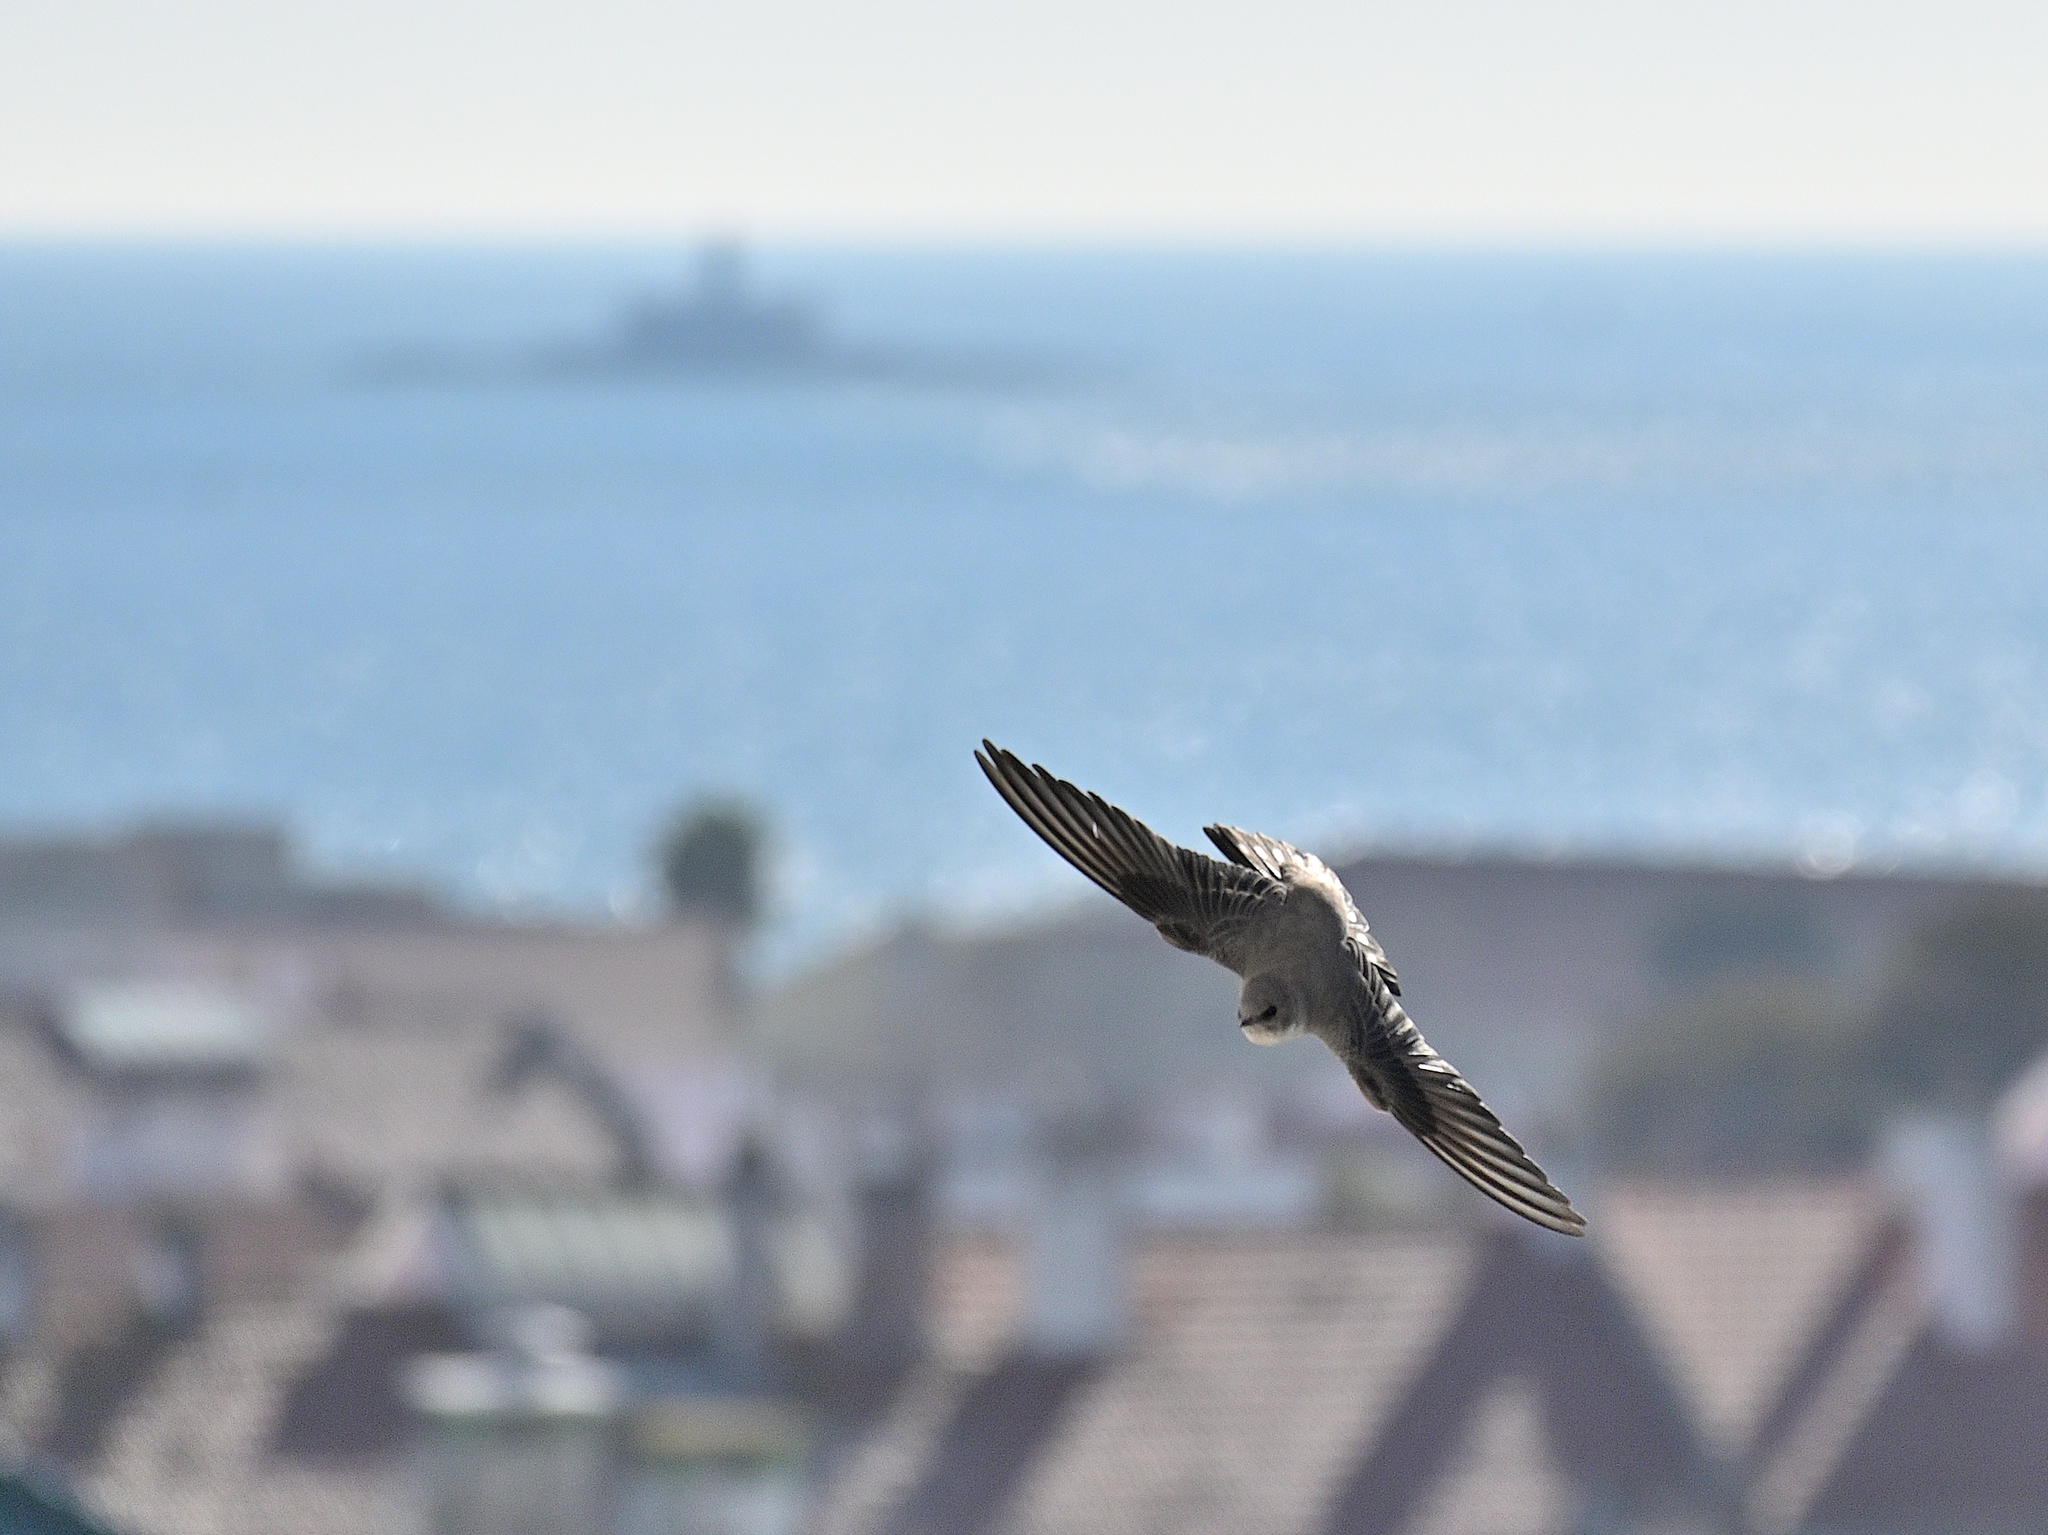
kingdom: Animalia
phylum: Chordata
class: Aves
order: Passeriformes
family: Hirundinidae
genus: Ptyonoprogne
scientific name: Ptyonoprogne rupestris
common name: Eurasian crag martin
